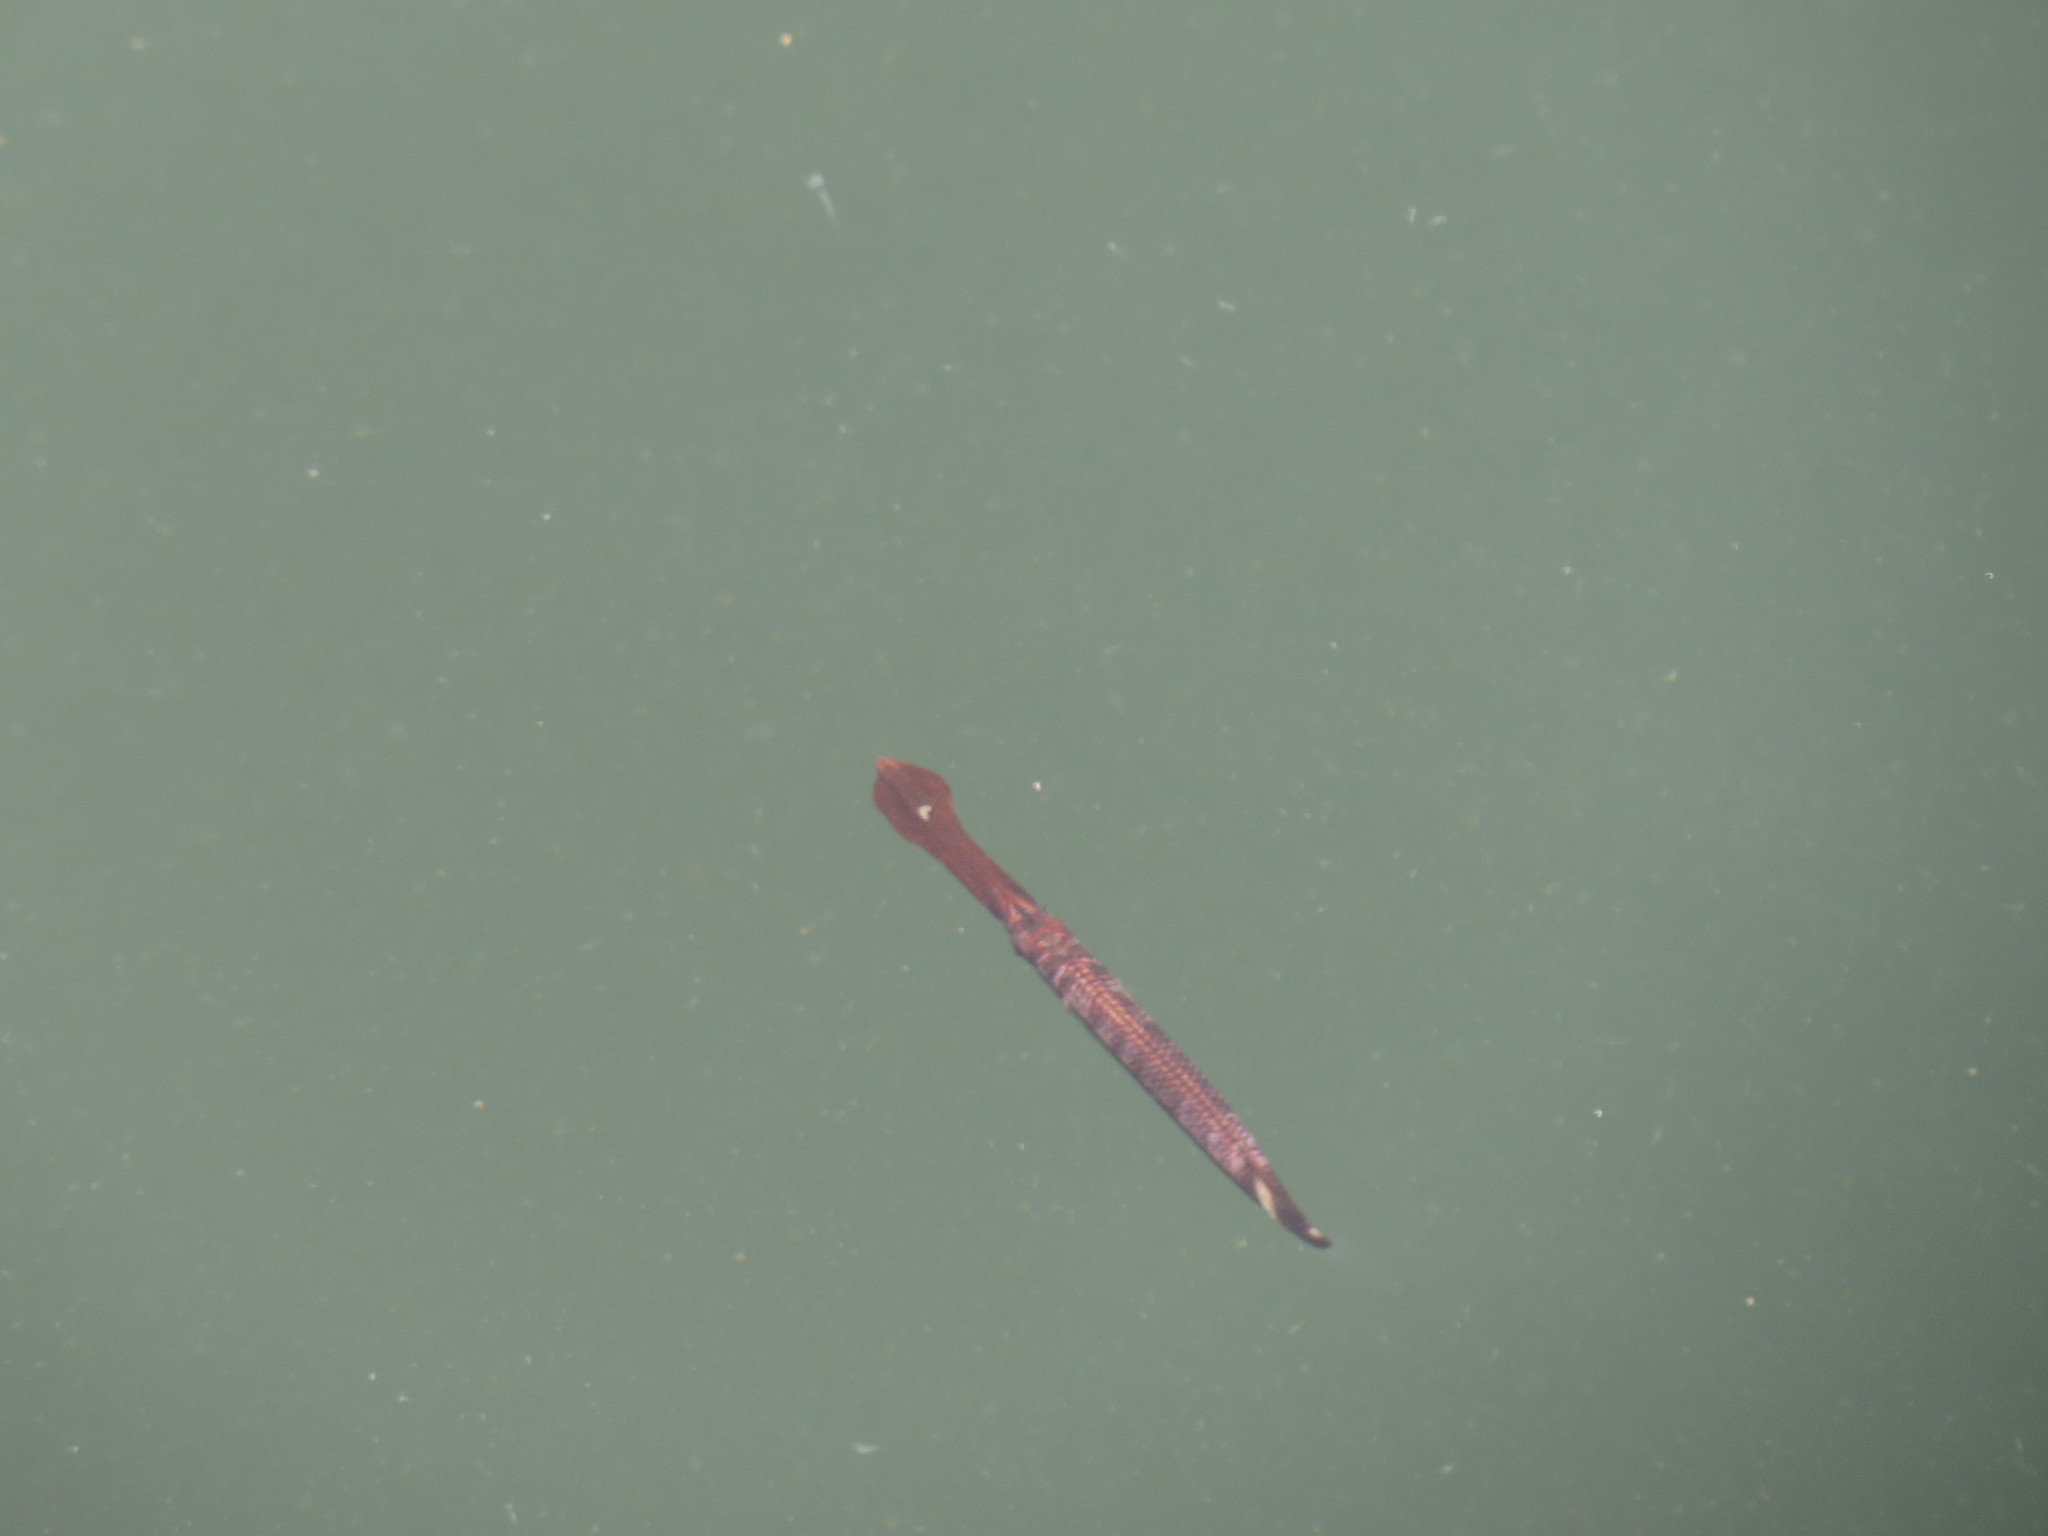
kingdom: Animalia
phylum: Chordata
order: Beloniformes
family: Hemiramphidae
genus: Rhynchorhamphus
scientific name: Rhynchorhamphus georgii
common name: Long billed half beak
